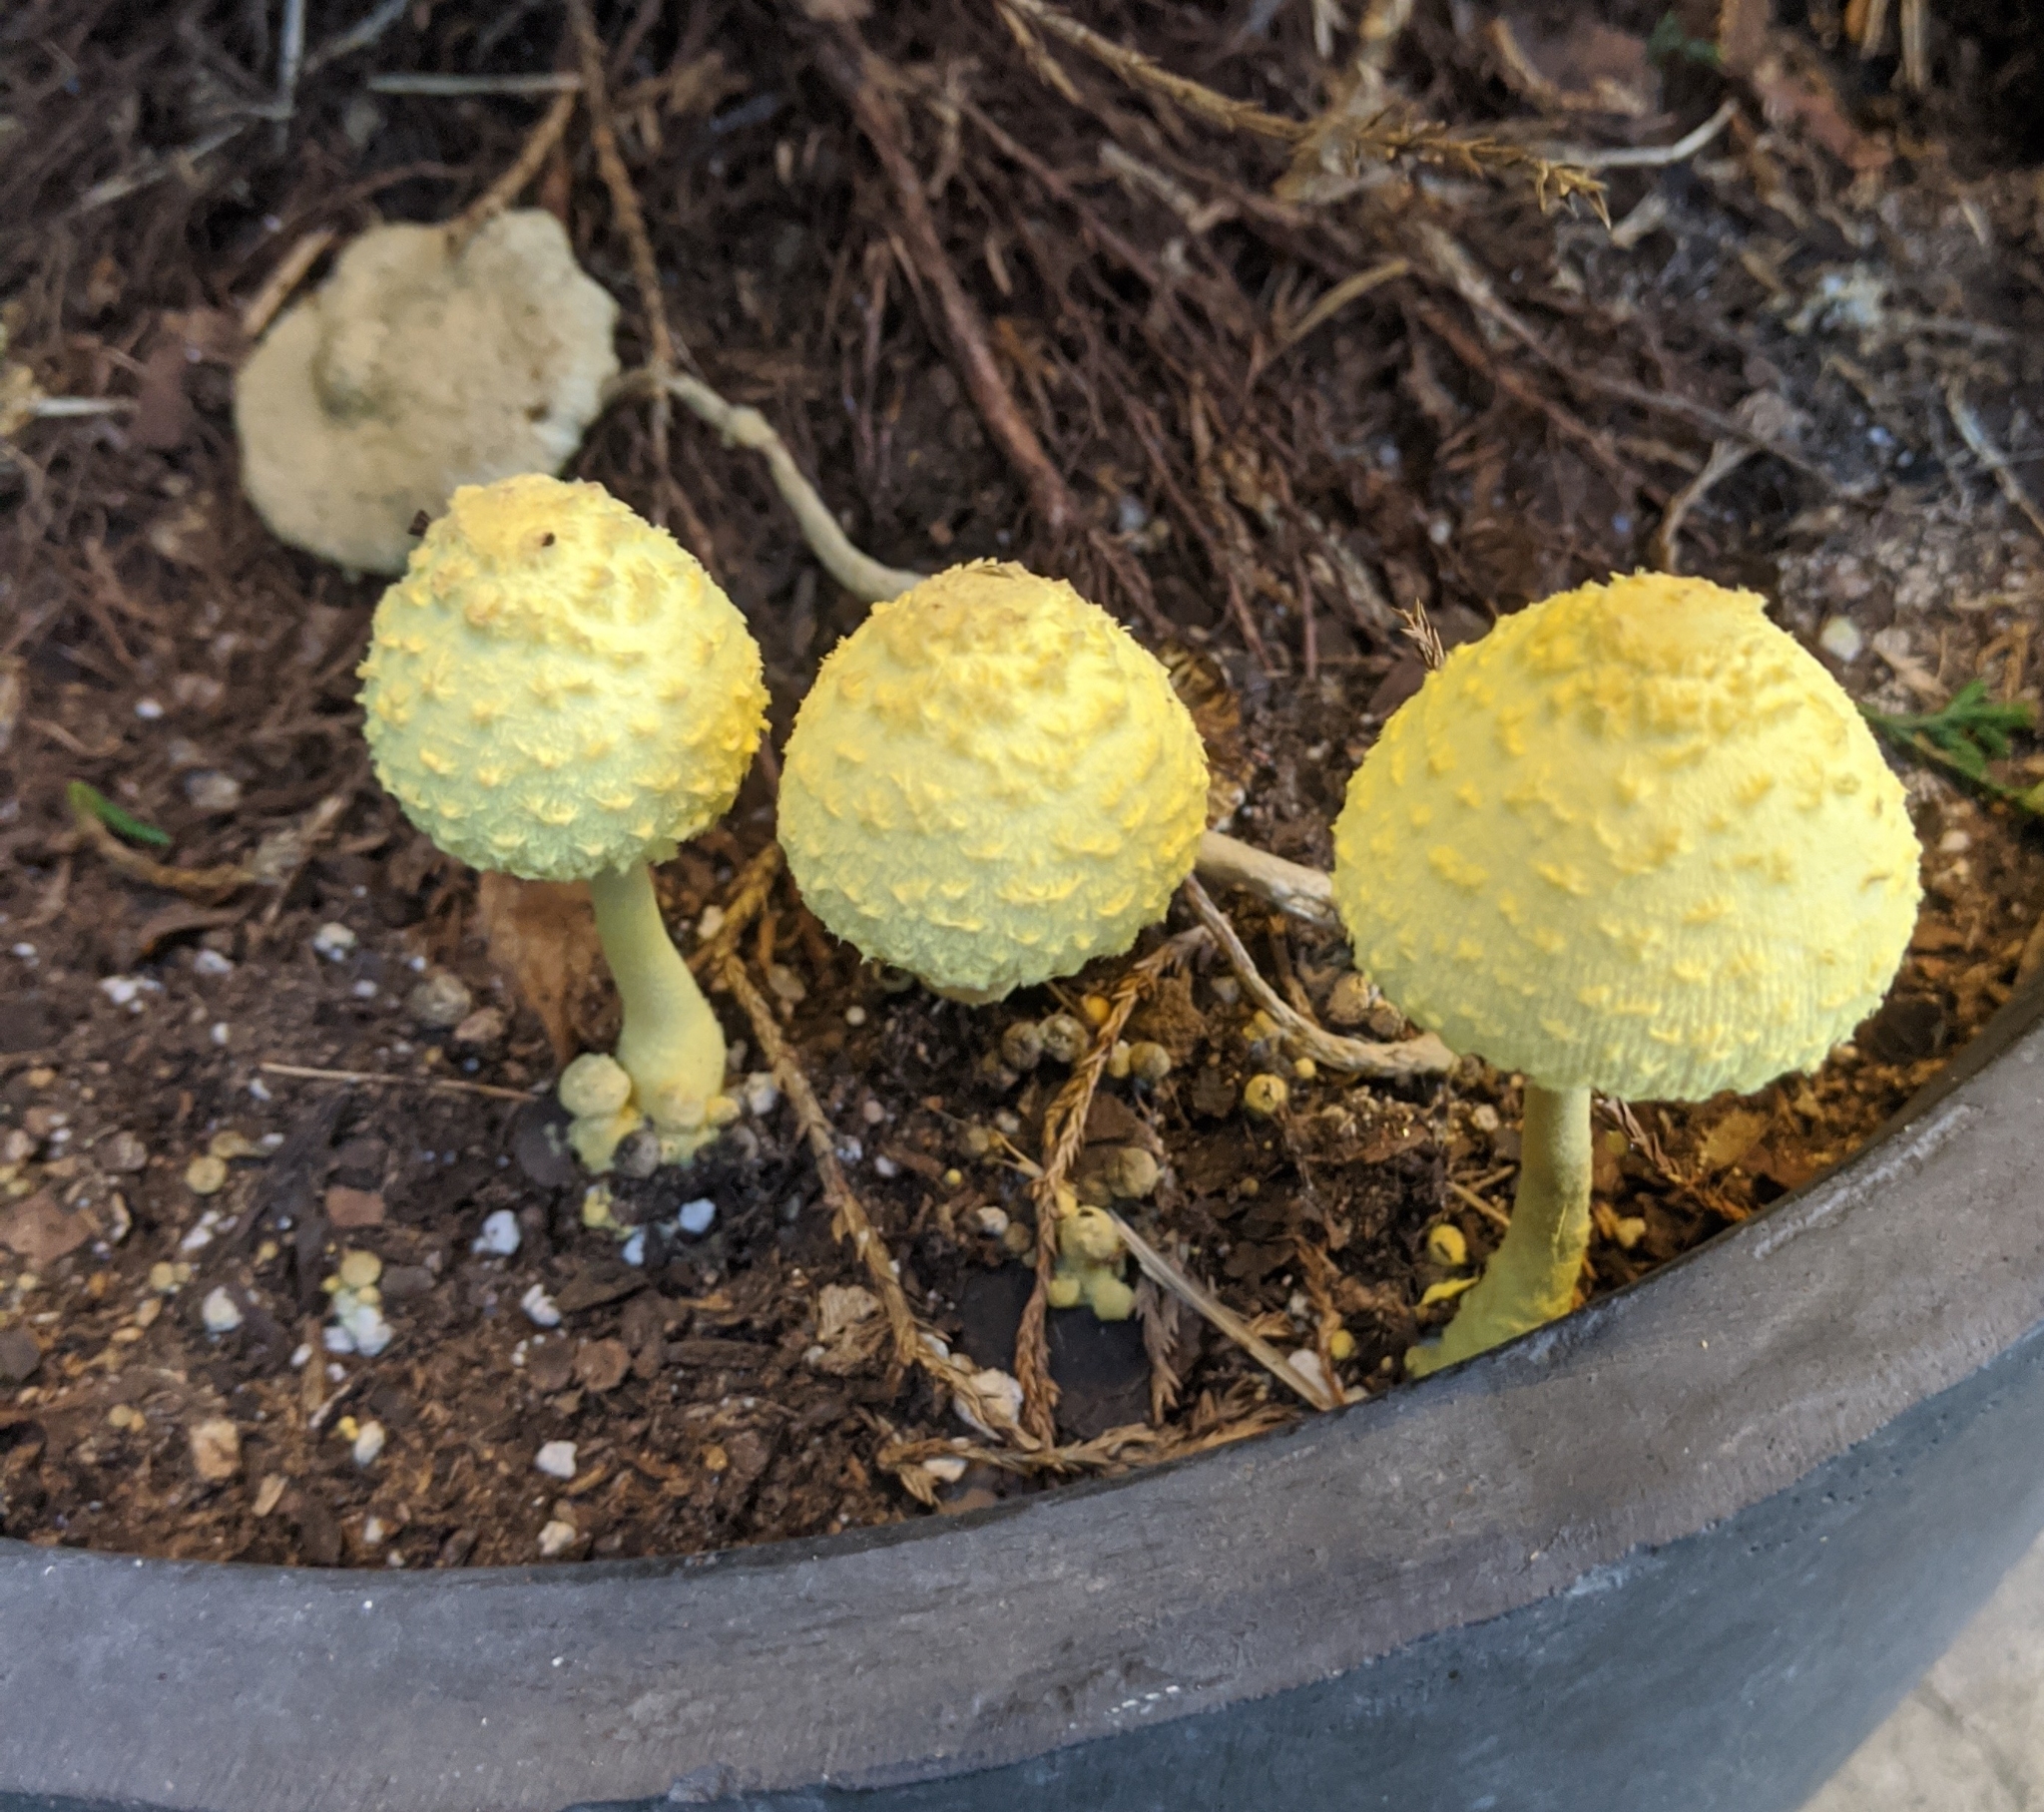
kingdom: Fungi
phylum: Basidiomycota
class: Agaricomycetes
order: Agaricales
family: Agaricaceae
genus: Leucocoprinus
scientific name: Leucocoprinus birnbaumii
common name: Plantpot dapperling
